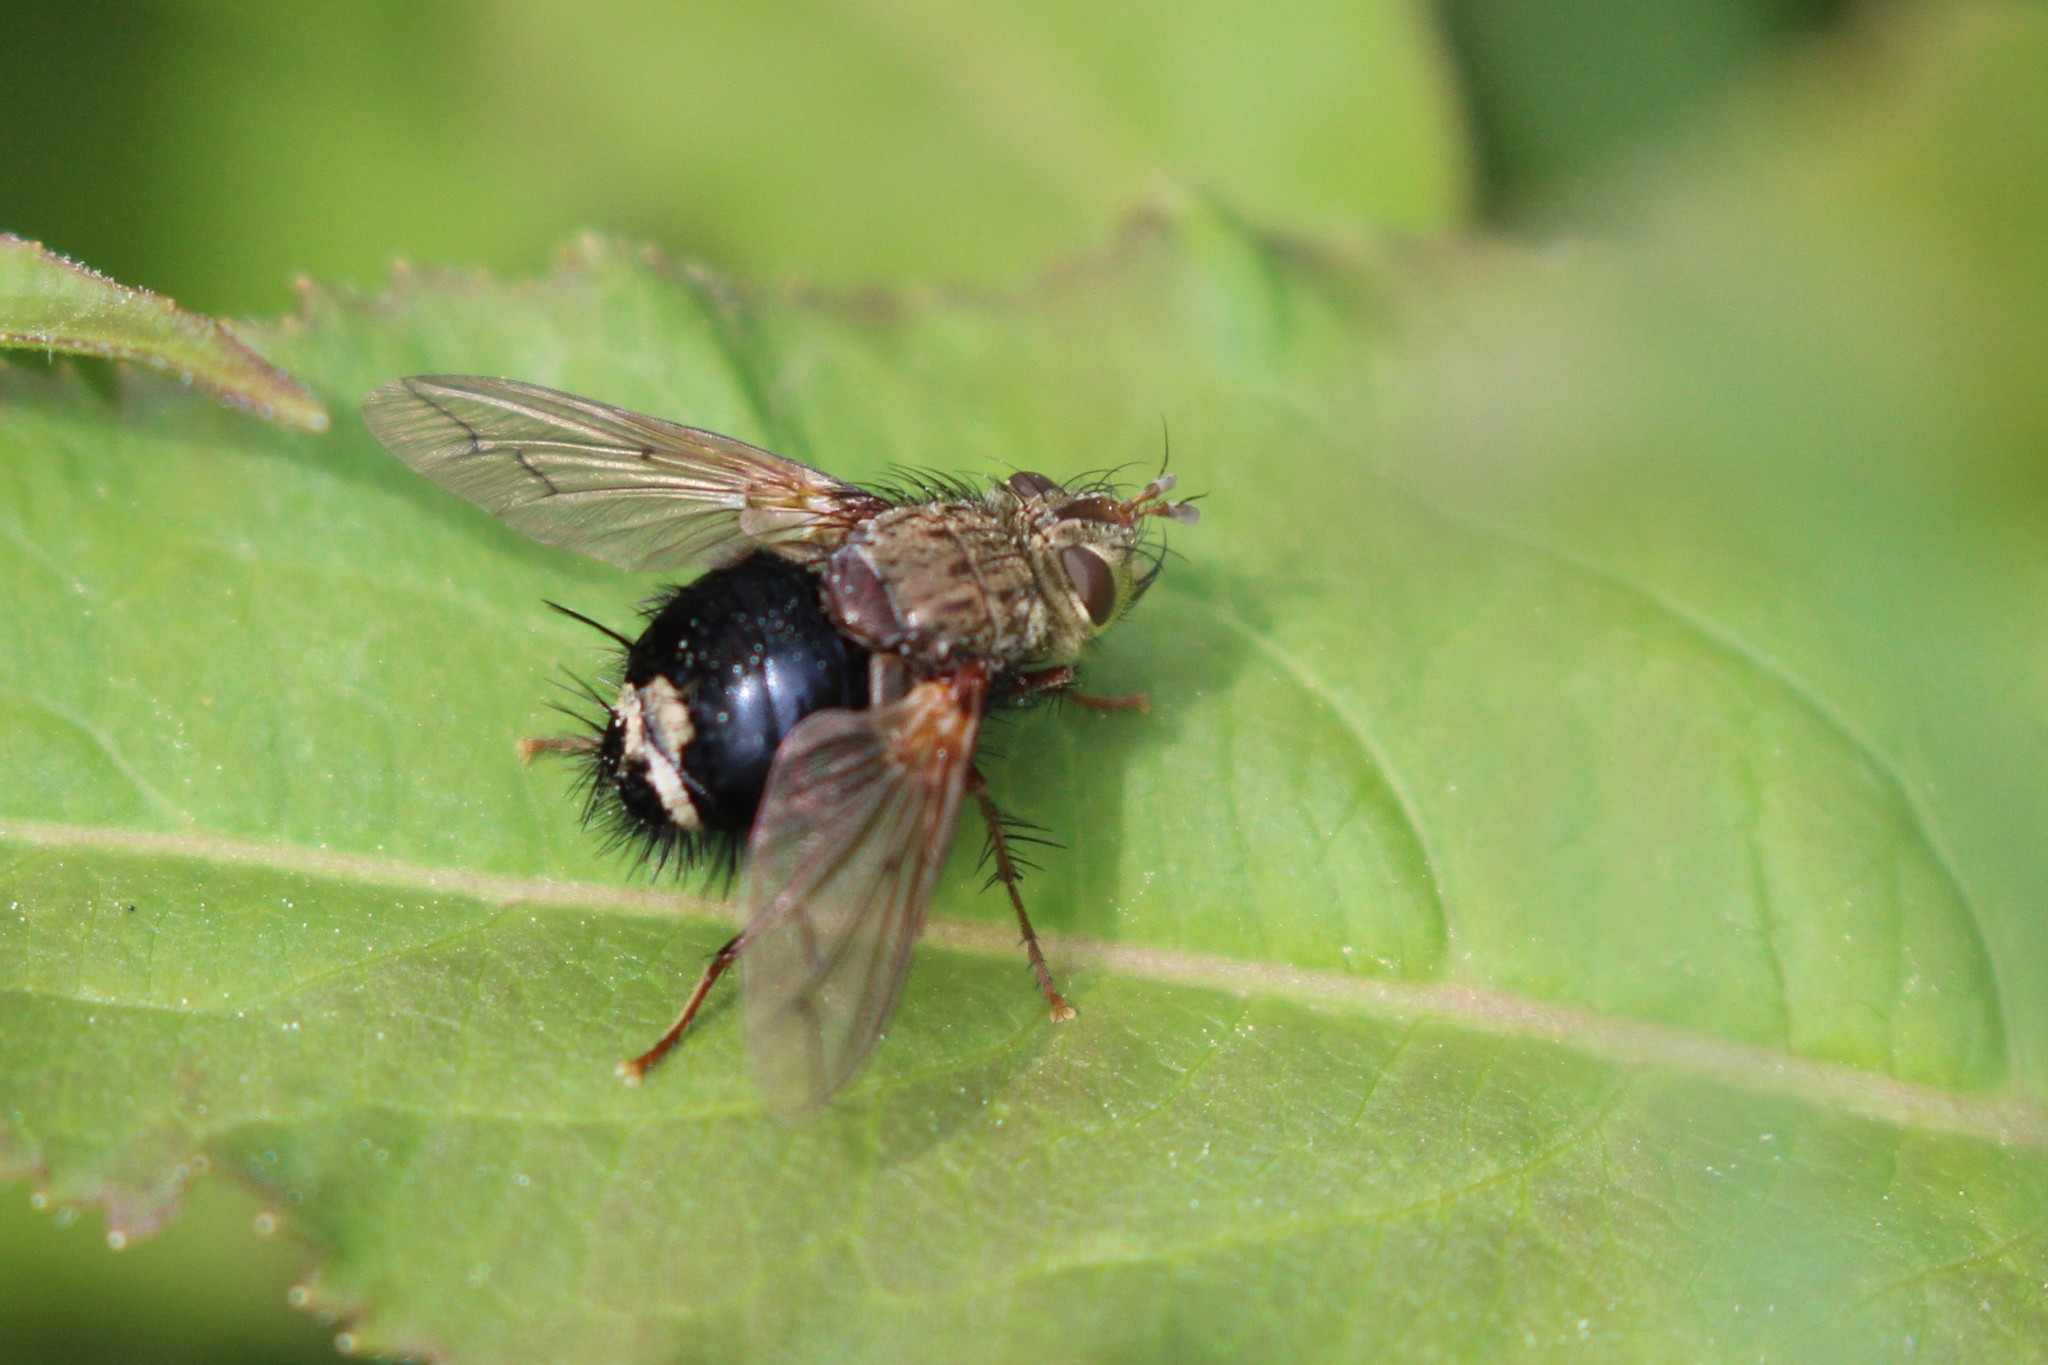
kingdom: Animalia
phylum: Arthropoda
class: Insecta
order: Diptera
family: Tachinidae
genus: Epalpus
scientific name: Epalpus signifer
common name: Early tachinid fly
